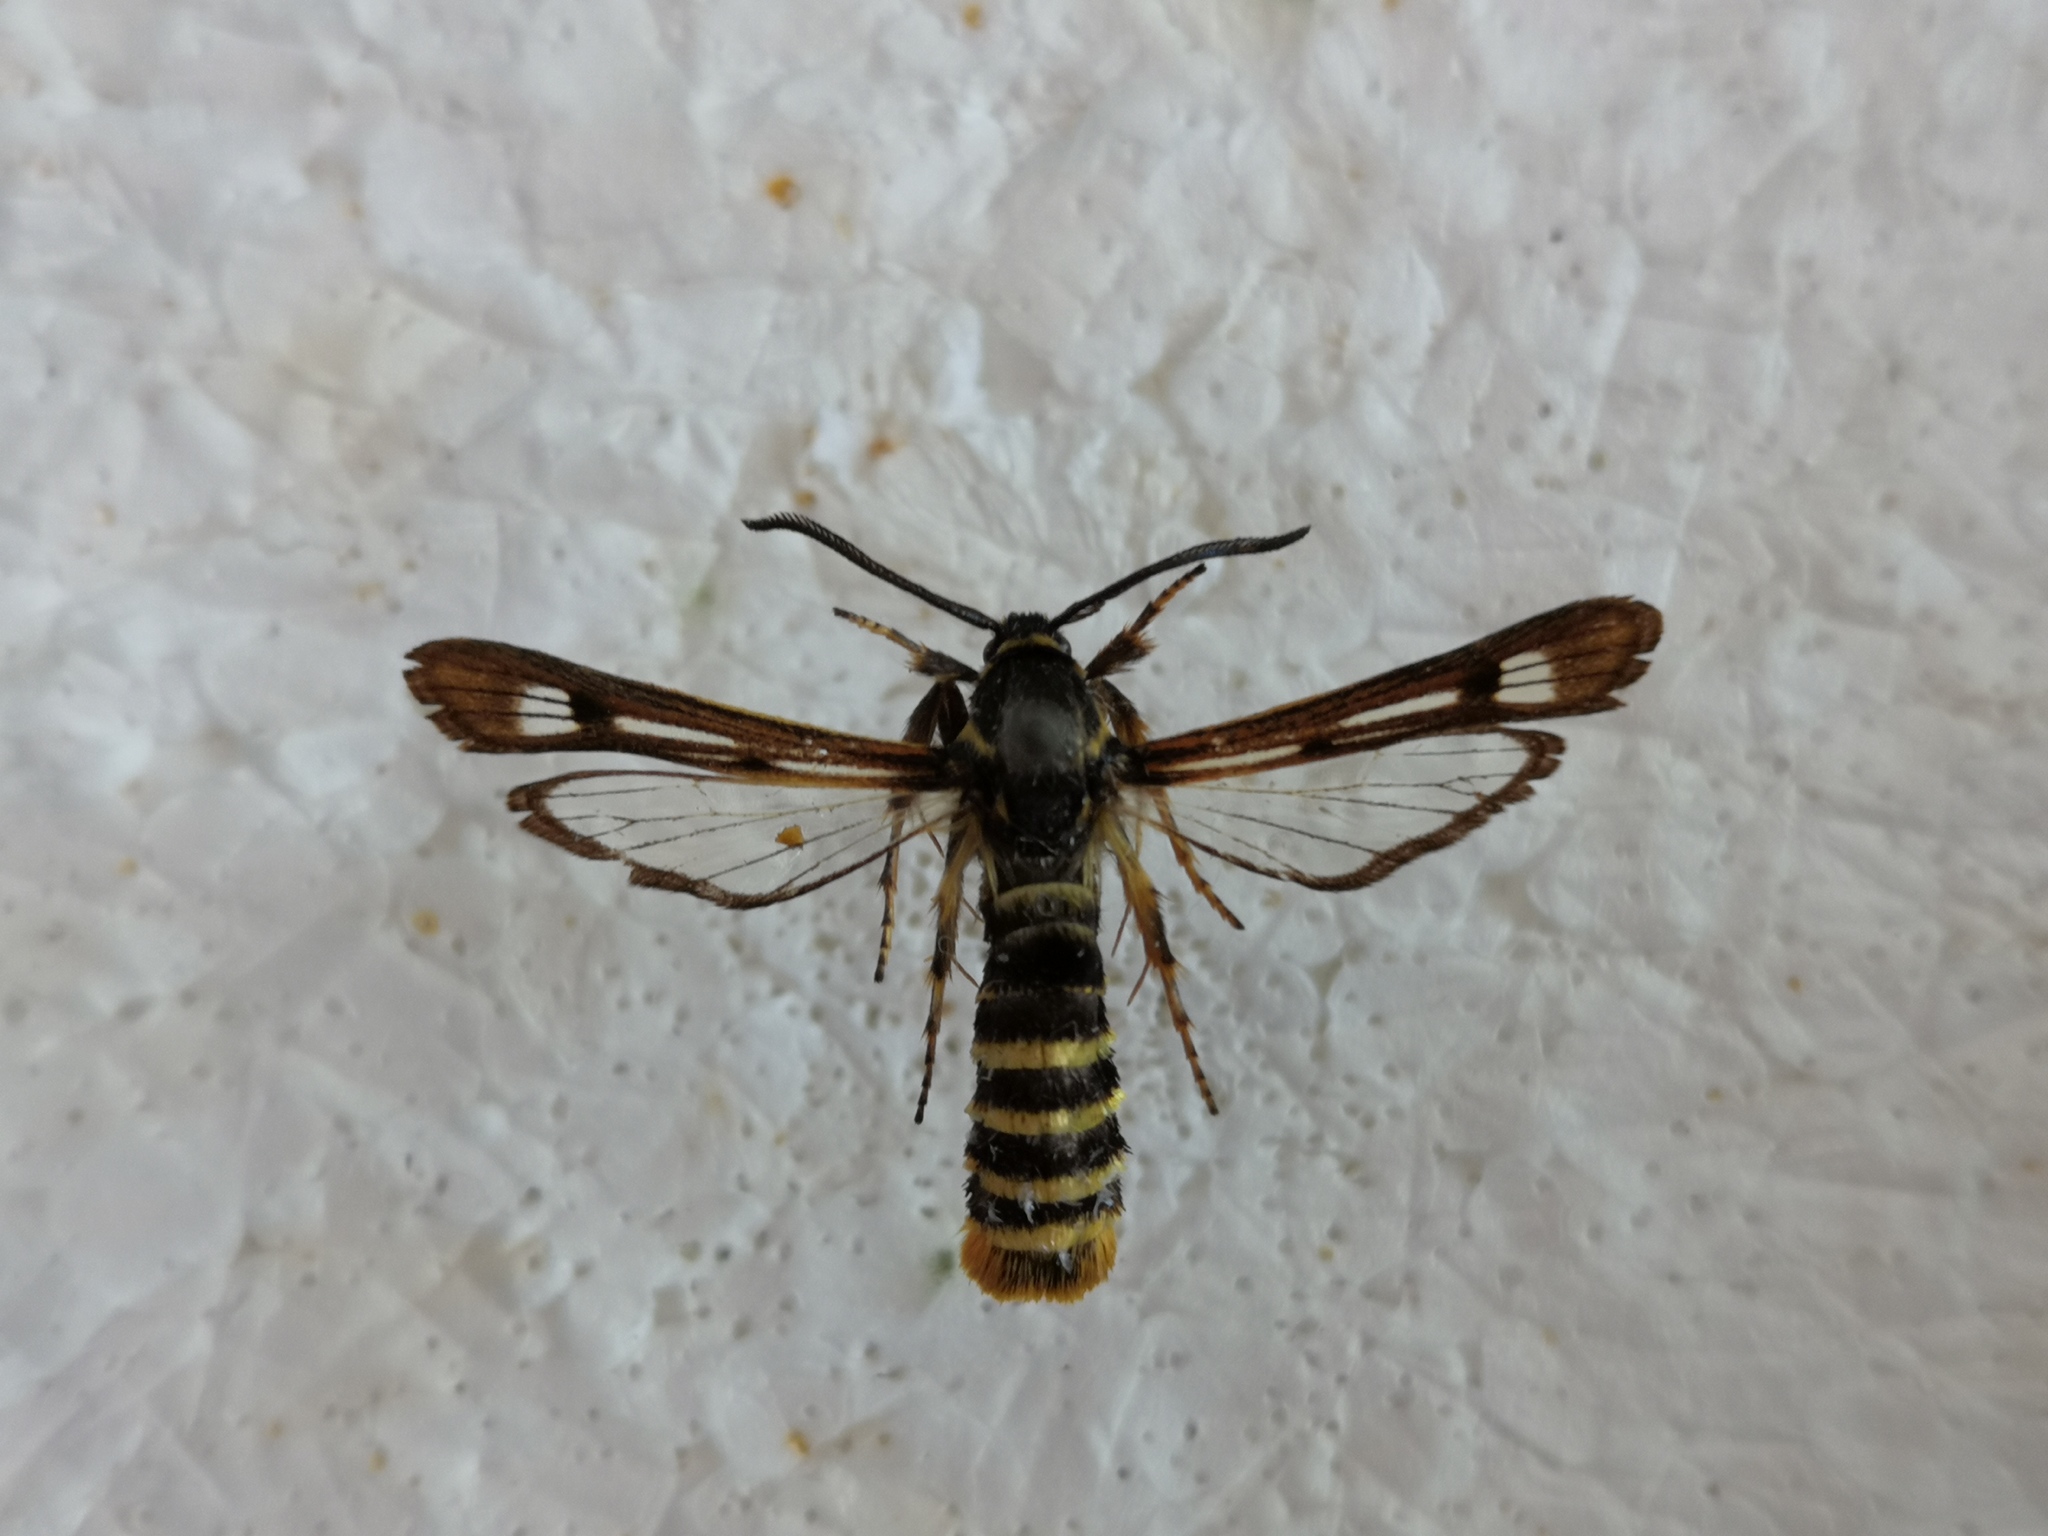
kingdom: Animalia
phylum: Arthropoda
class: Insecta
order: Lepidoptera
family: Sesiidae
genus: Pennisetia
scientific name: Pennisetia hylaeiformis
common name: Raspberry clearwing
